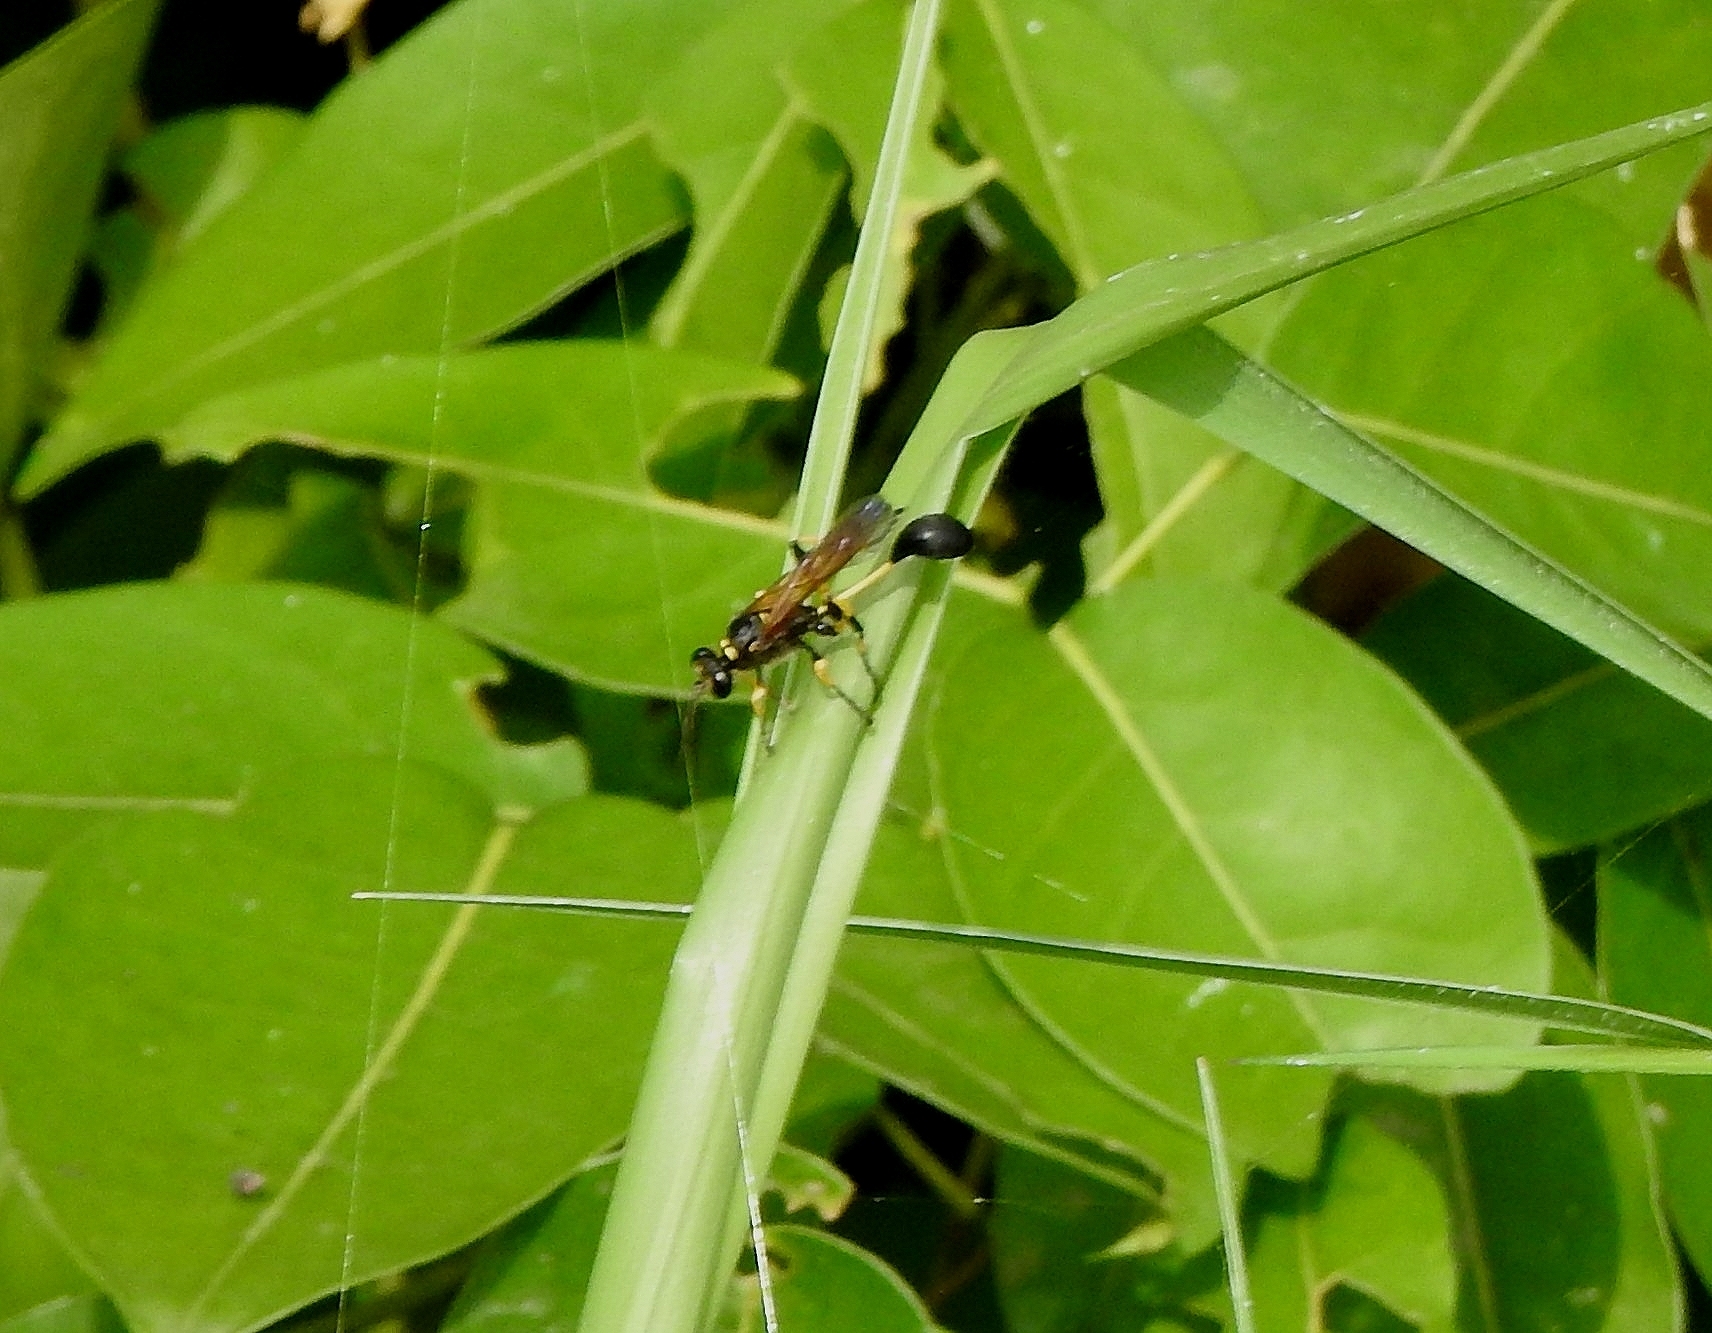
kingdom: Animalia
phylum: Arthropoda
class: Insecta
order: Hymenoptera
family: Sphecidae
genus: Sceliphron
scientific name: Sceliphron madraspatanum
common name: Mud dauber
